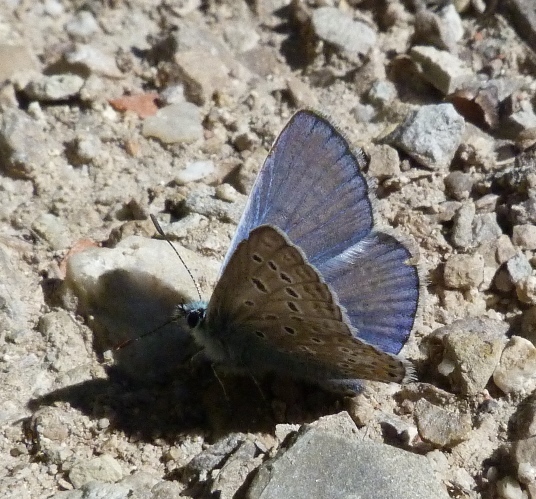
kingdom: Animalia
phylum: Arthropoda
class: Insecta
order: Lepidoptera
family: Lycaenidae
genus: Polyommatus
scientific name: Polyommatus icarus
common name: Common blue
